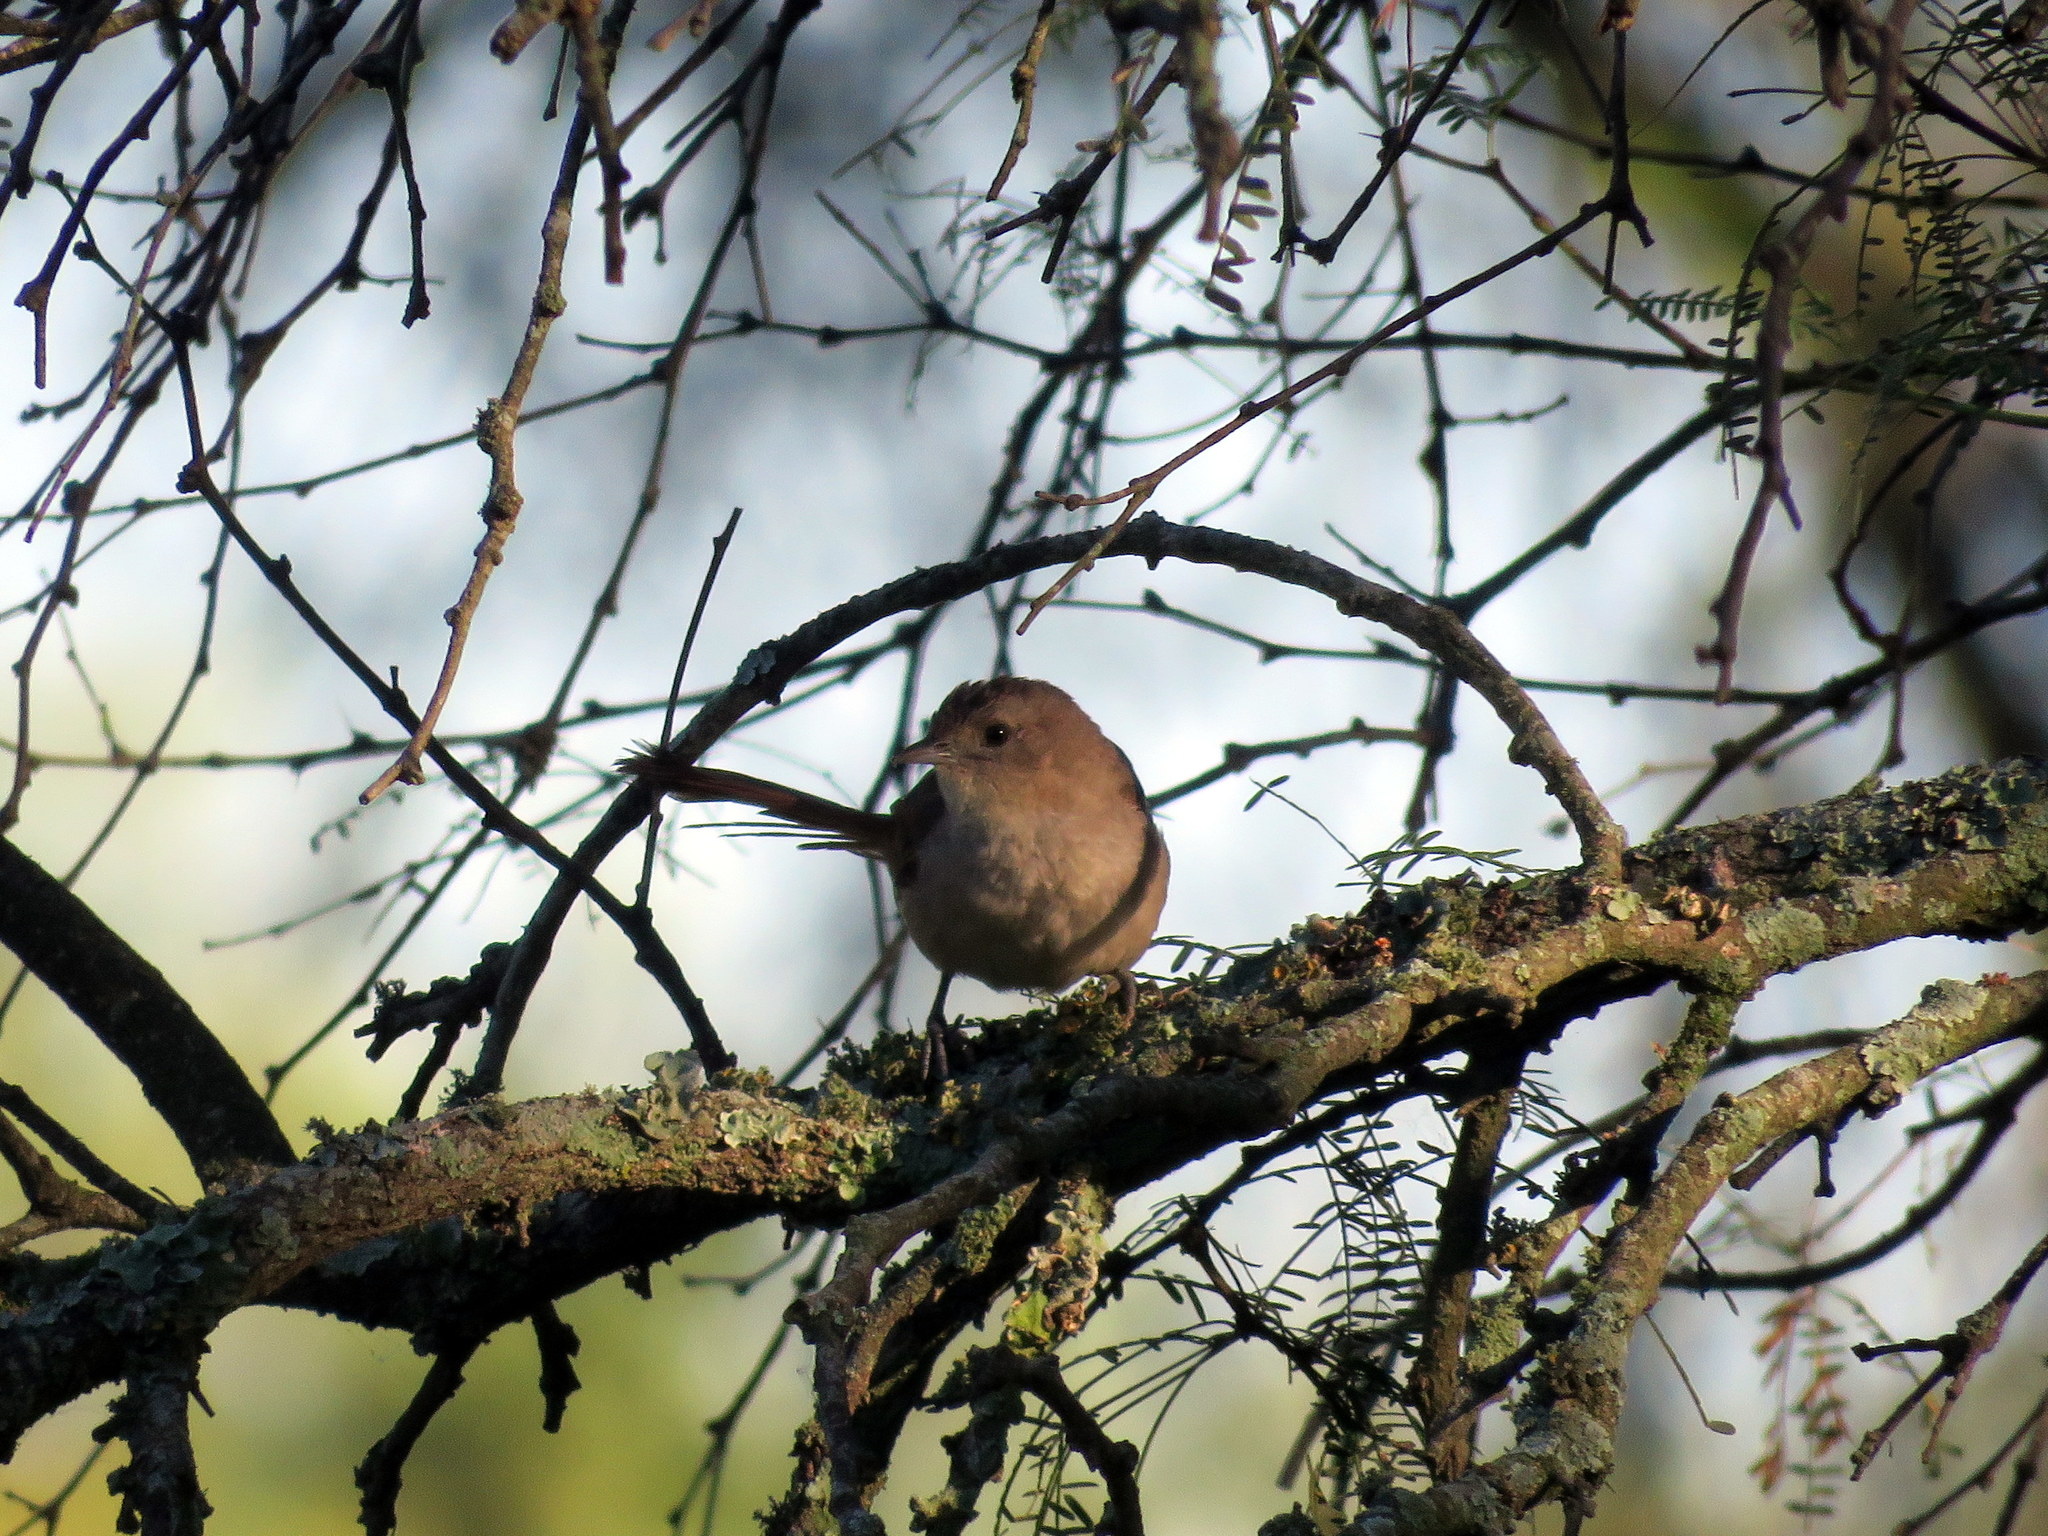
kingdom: Animalia
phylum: Chordata
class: Aves
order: Passeriformes
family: Furnariidae
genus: Phacellodomus
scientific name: Phacellodomus sibilatrix
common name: Little thornbird
